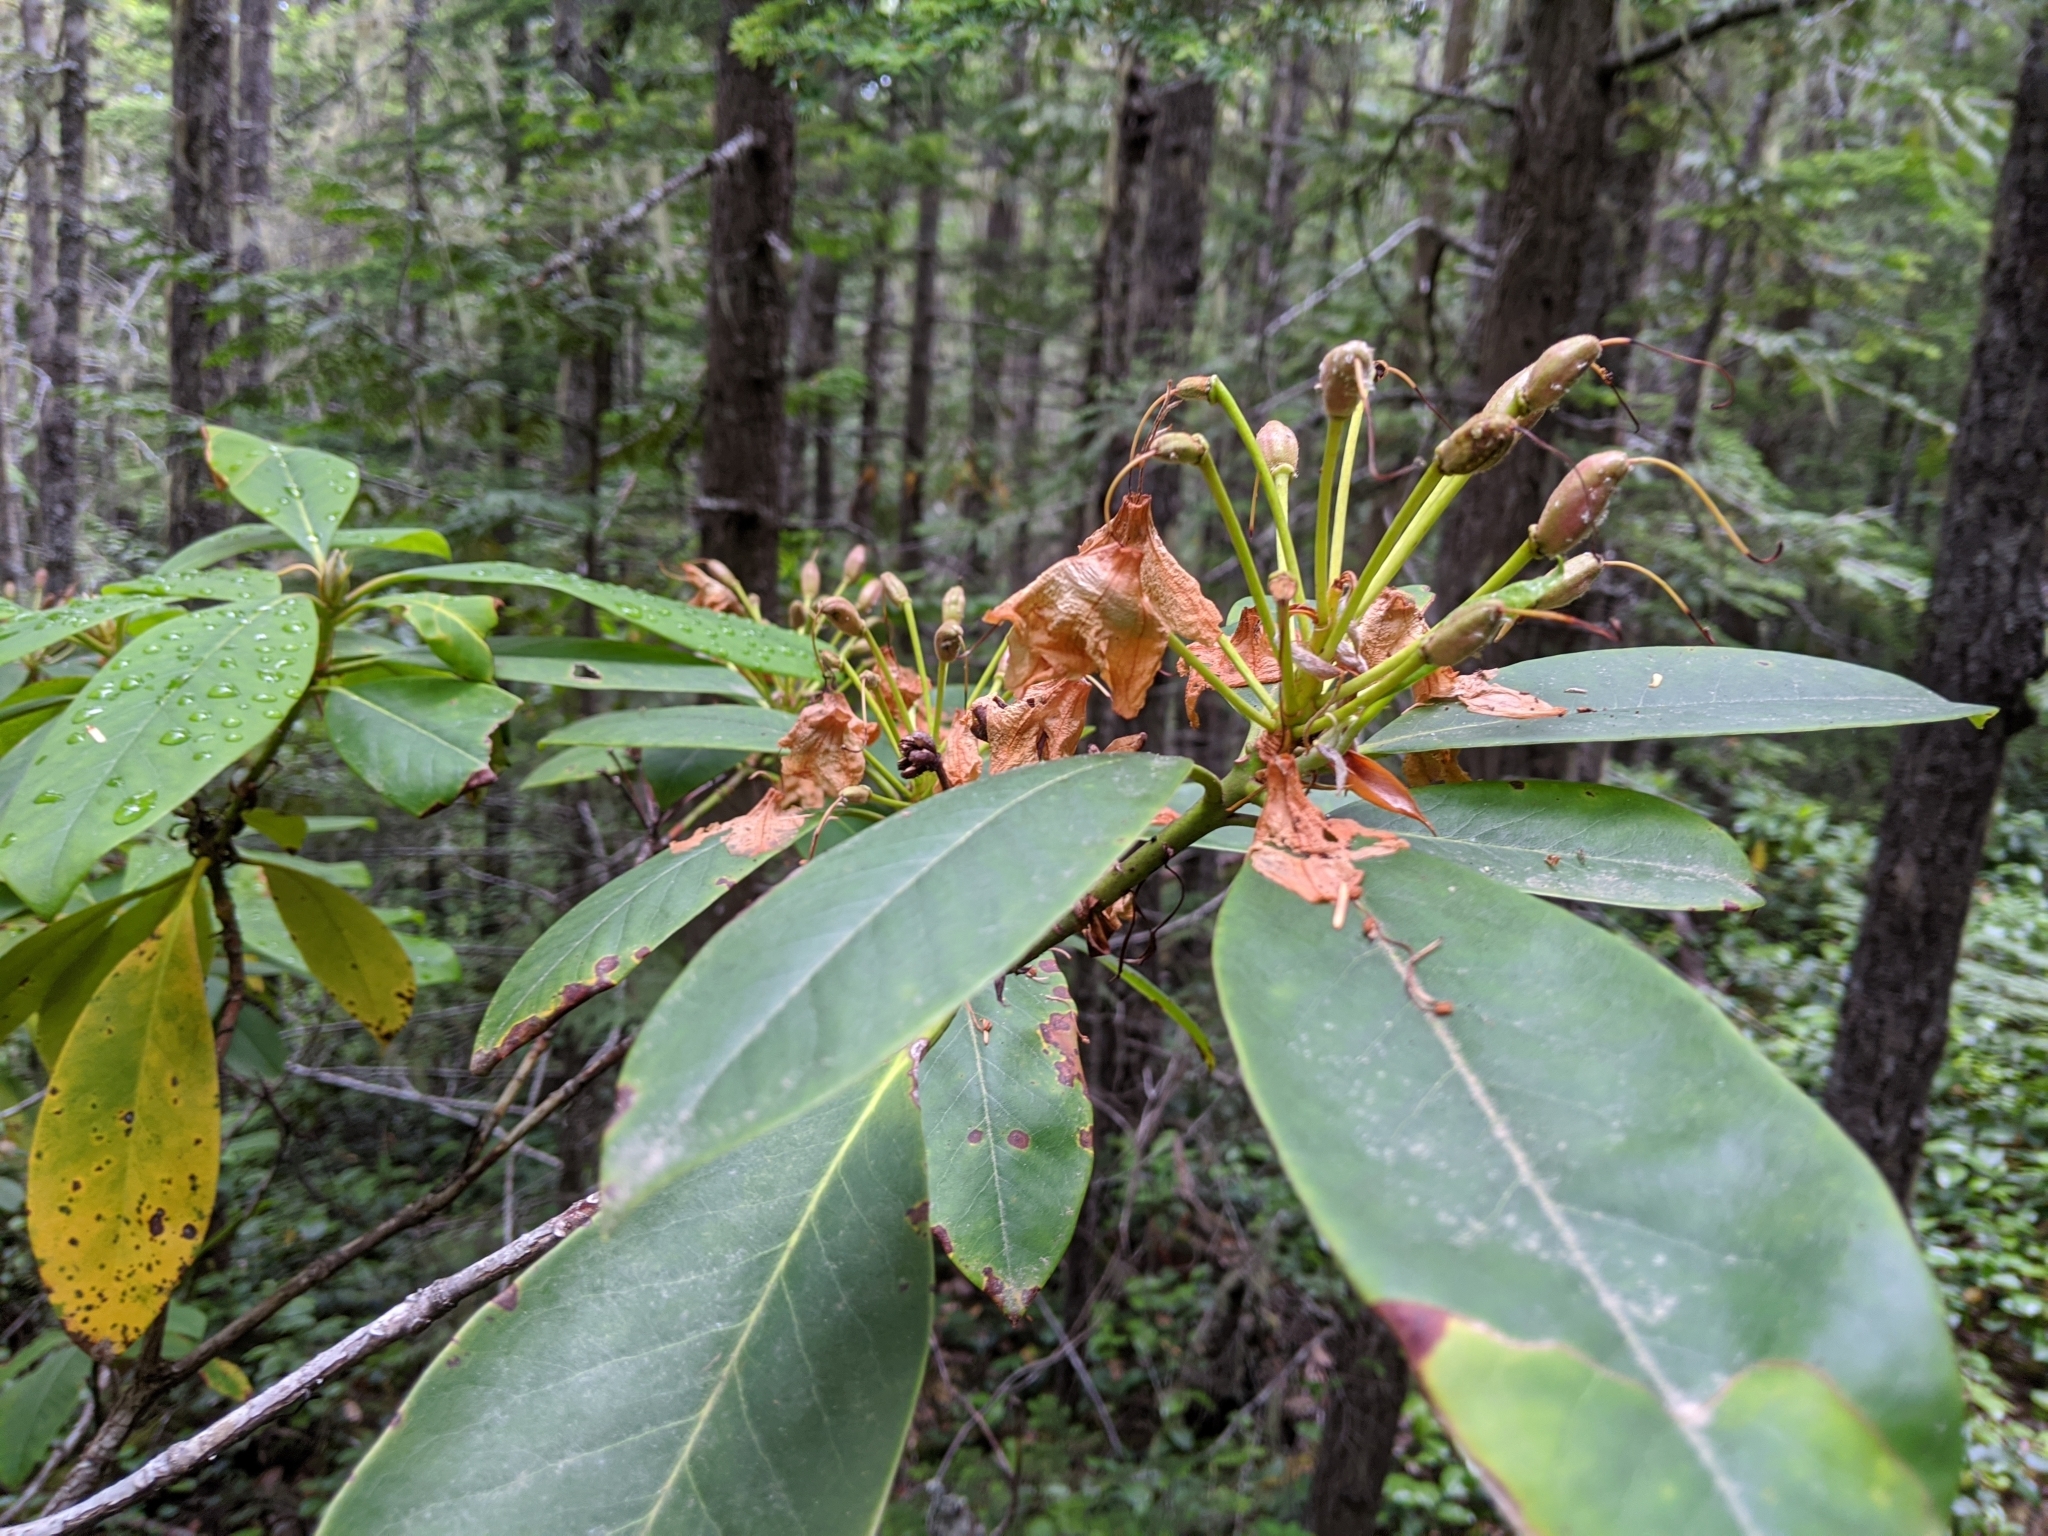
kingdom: Plantae
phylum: Tracheophyta
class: Magnoliopsida
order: Ericales
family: Ericaceae
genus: Rhododendron
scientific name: Rhododendron macrophyllum
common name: California rose bay
